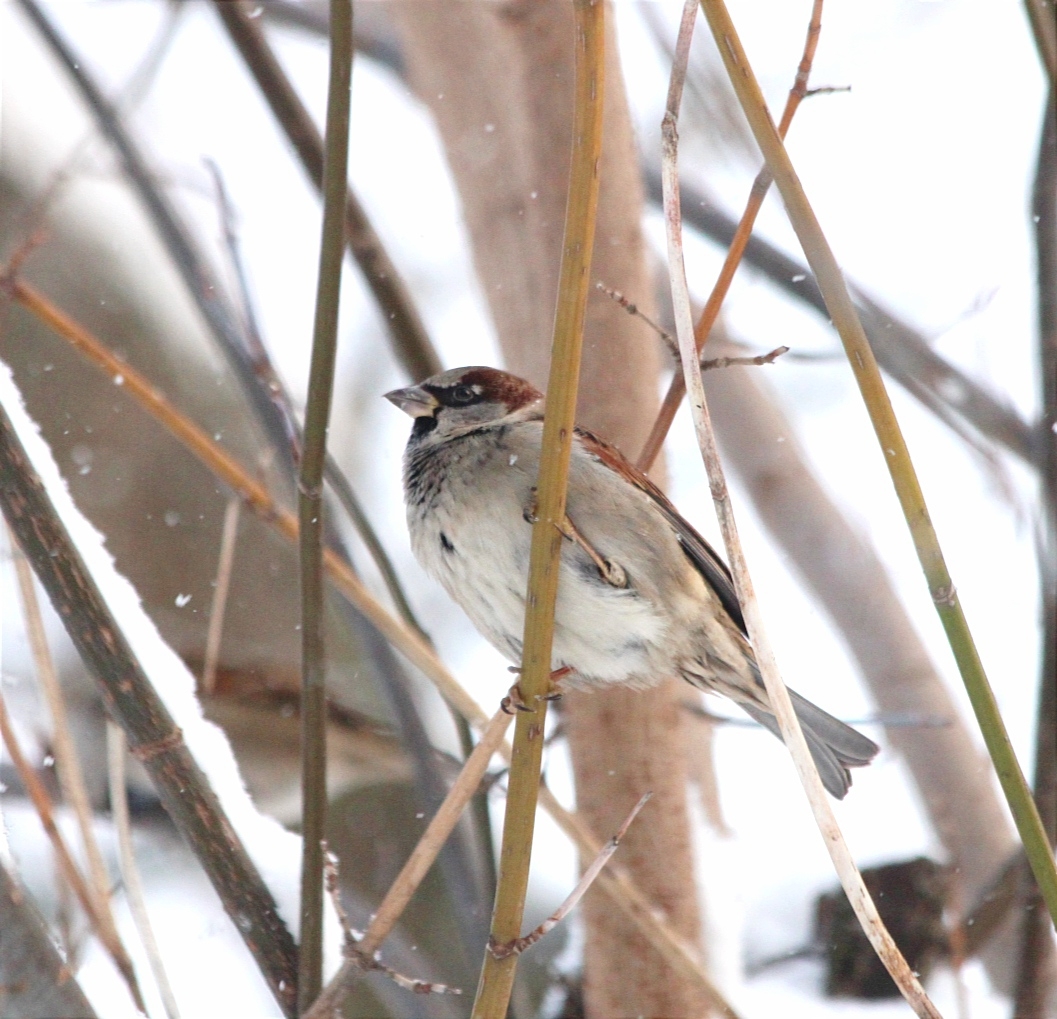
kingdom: Animalia
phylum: Chordata
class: Aves
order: Passeriformes
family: Passeridae
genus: Passer
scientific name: Passer domesticus
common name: House sparrow
